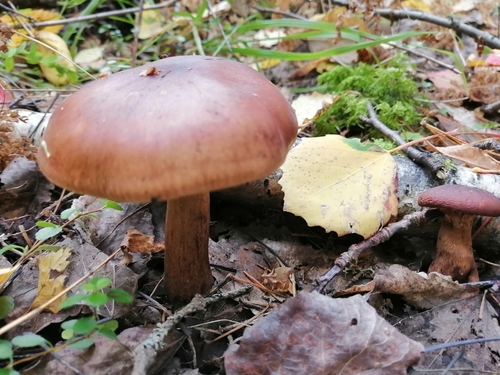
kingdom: Fungi
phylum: Basidiomycota
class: Agaricomycetes
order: Agaricales
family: Tricholomataceae
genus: Tricholoma
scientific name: Tricholoma fulvum
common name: Birch knight
